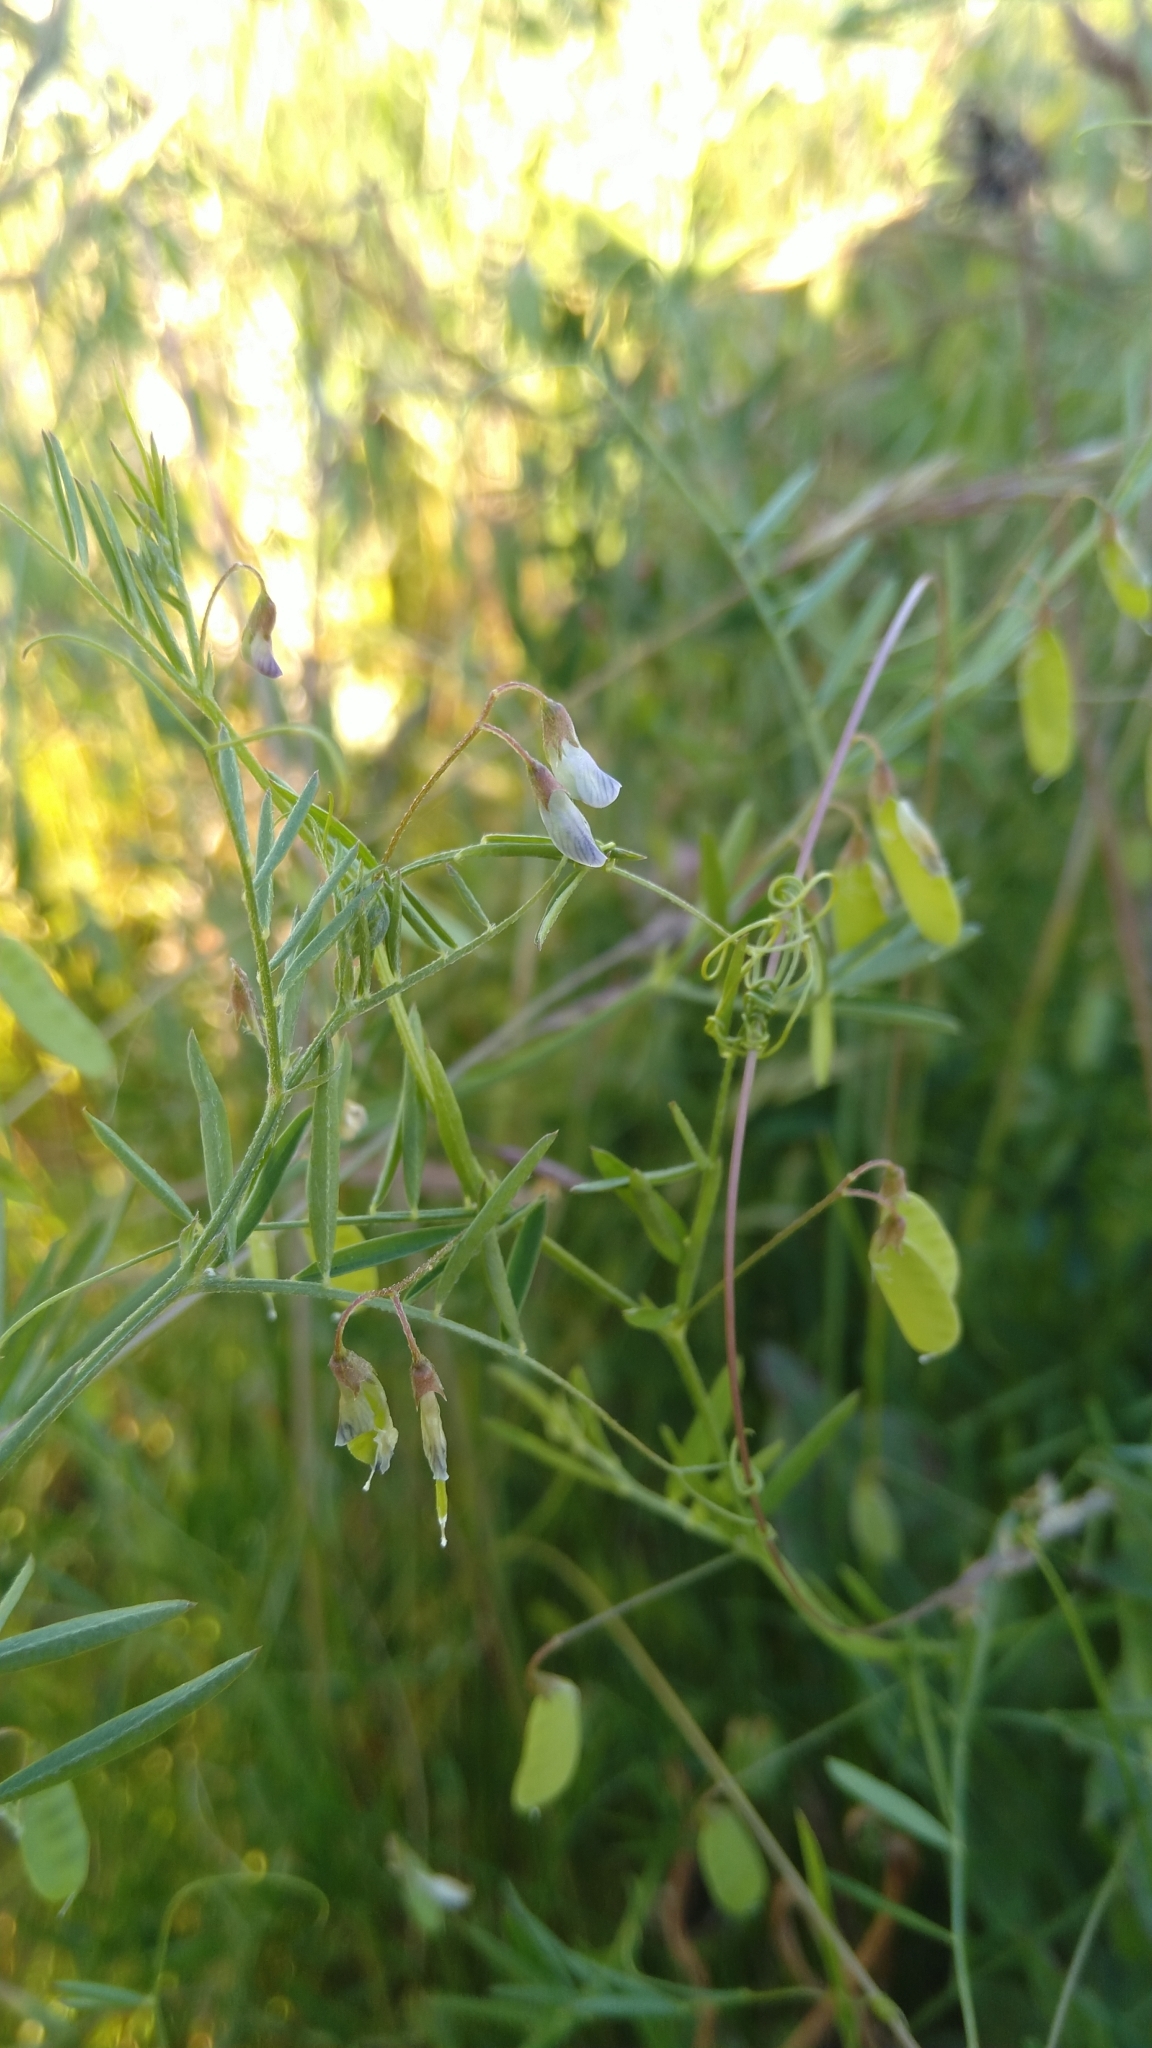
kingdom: Plantae
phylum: Tracheophyta
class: Magnoliopsida
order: Fabales
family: Fabaceae
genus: Vicia
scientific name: Vicia tetrasperma
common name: Smooth tare
